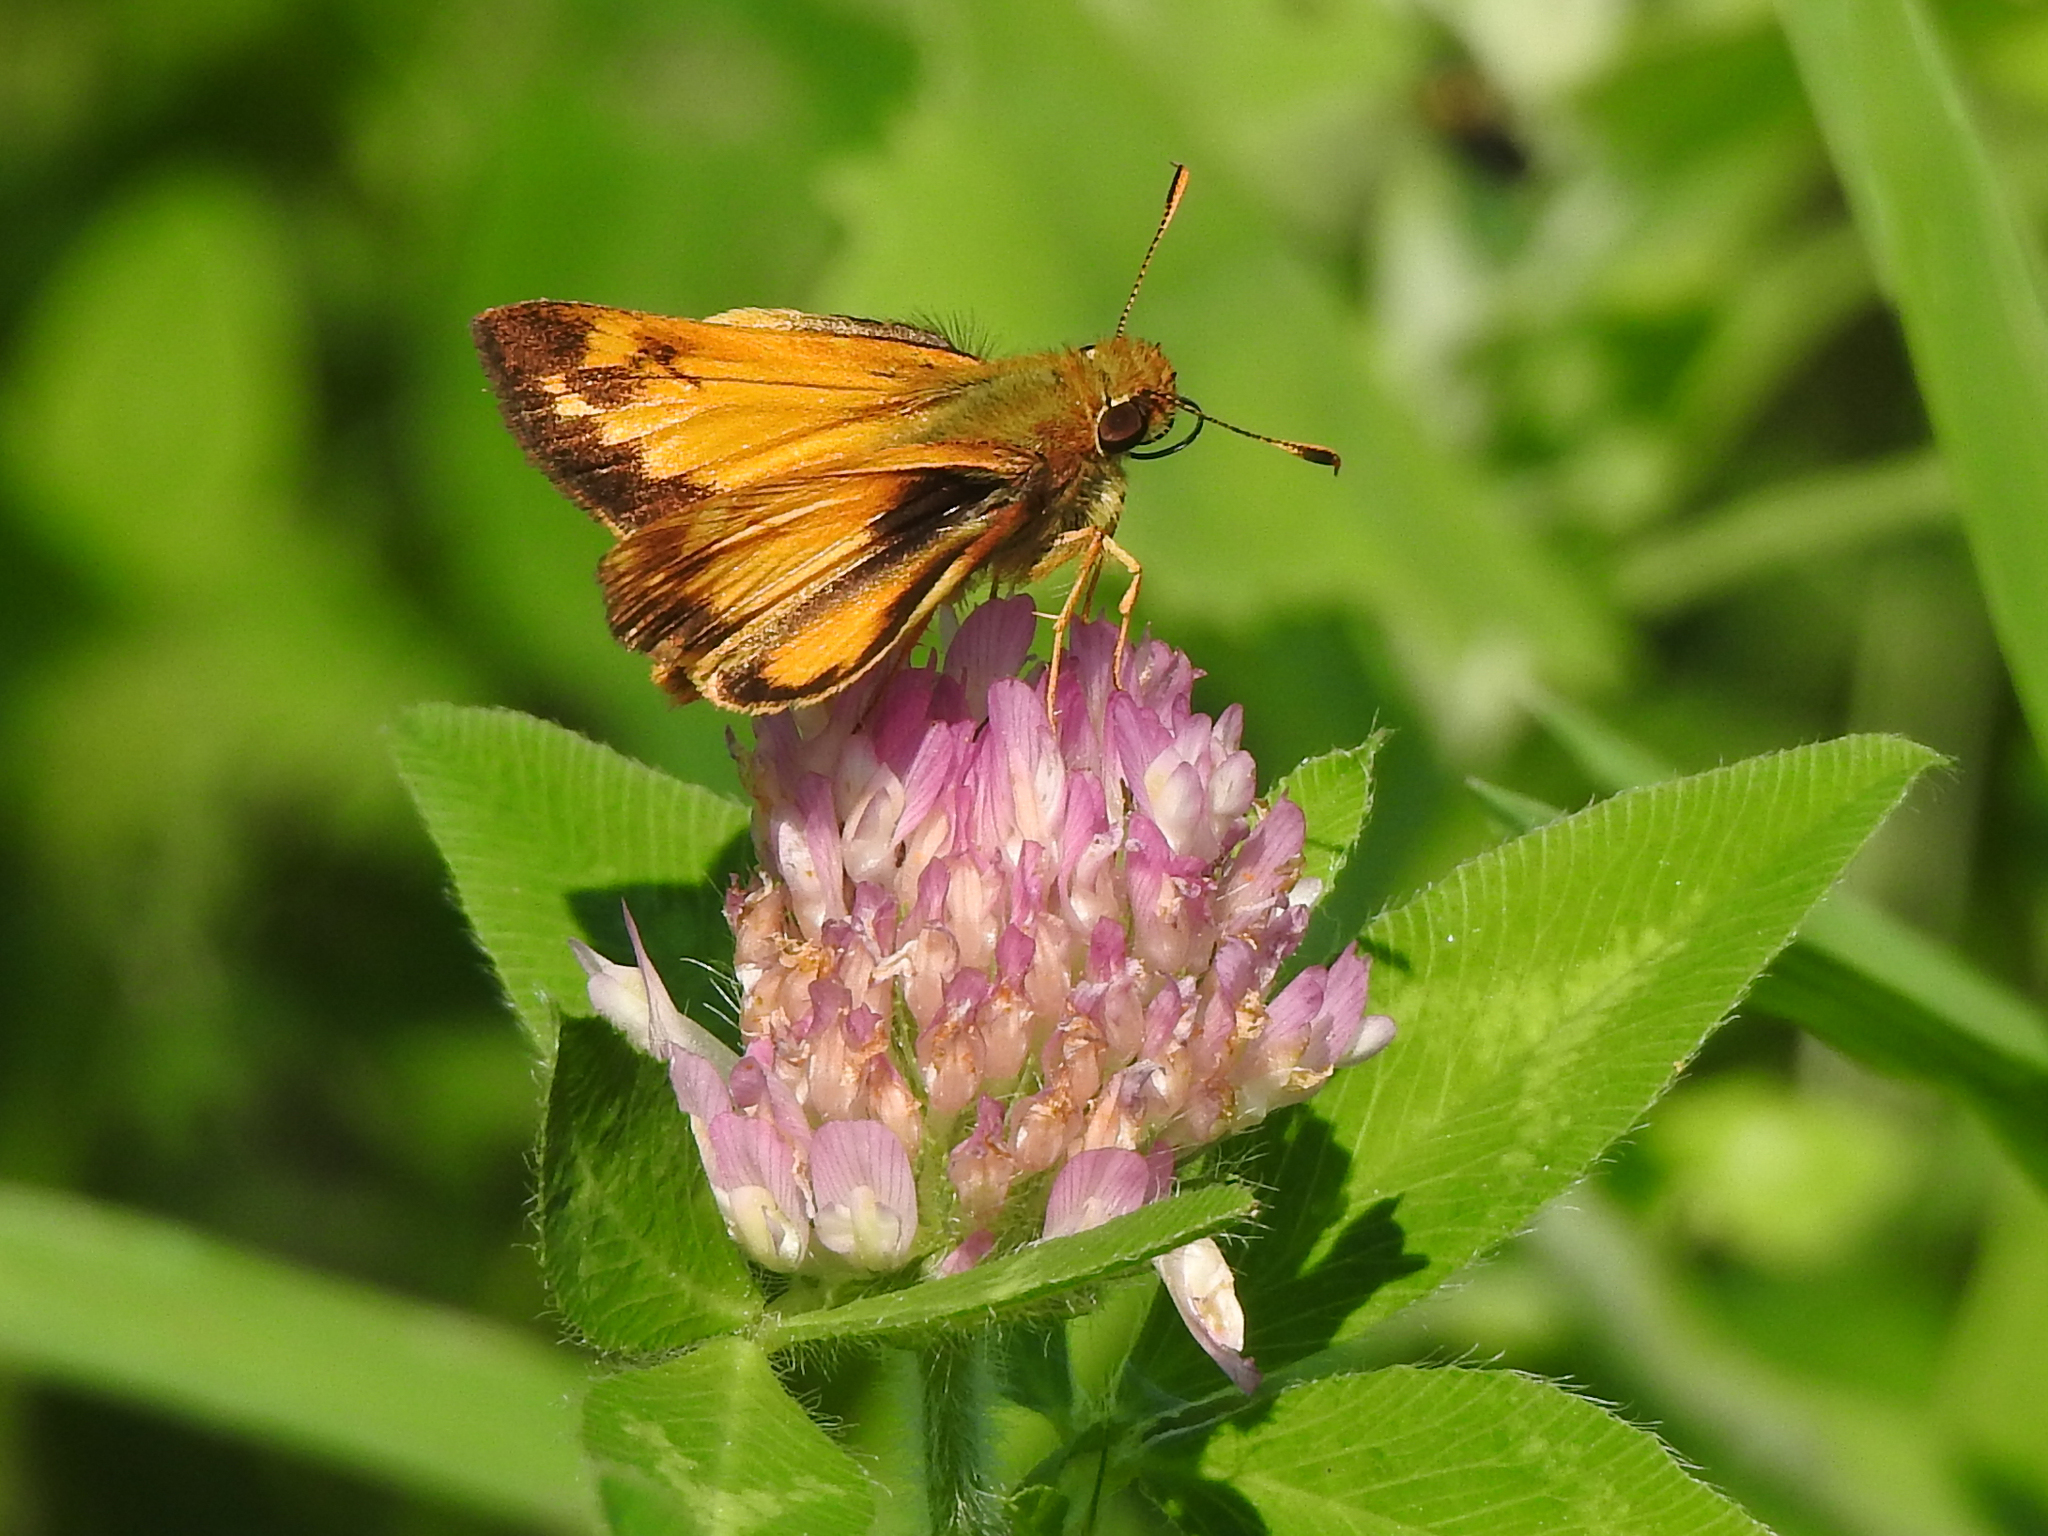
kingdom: Animalia
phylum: Arthropoda
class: Insecta
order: Lepidoptera
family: Hesperiidae
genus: Lon
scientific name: Lon zabulon
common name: Zabulon skipper
